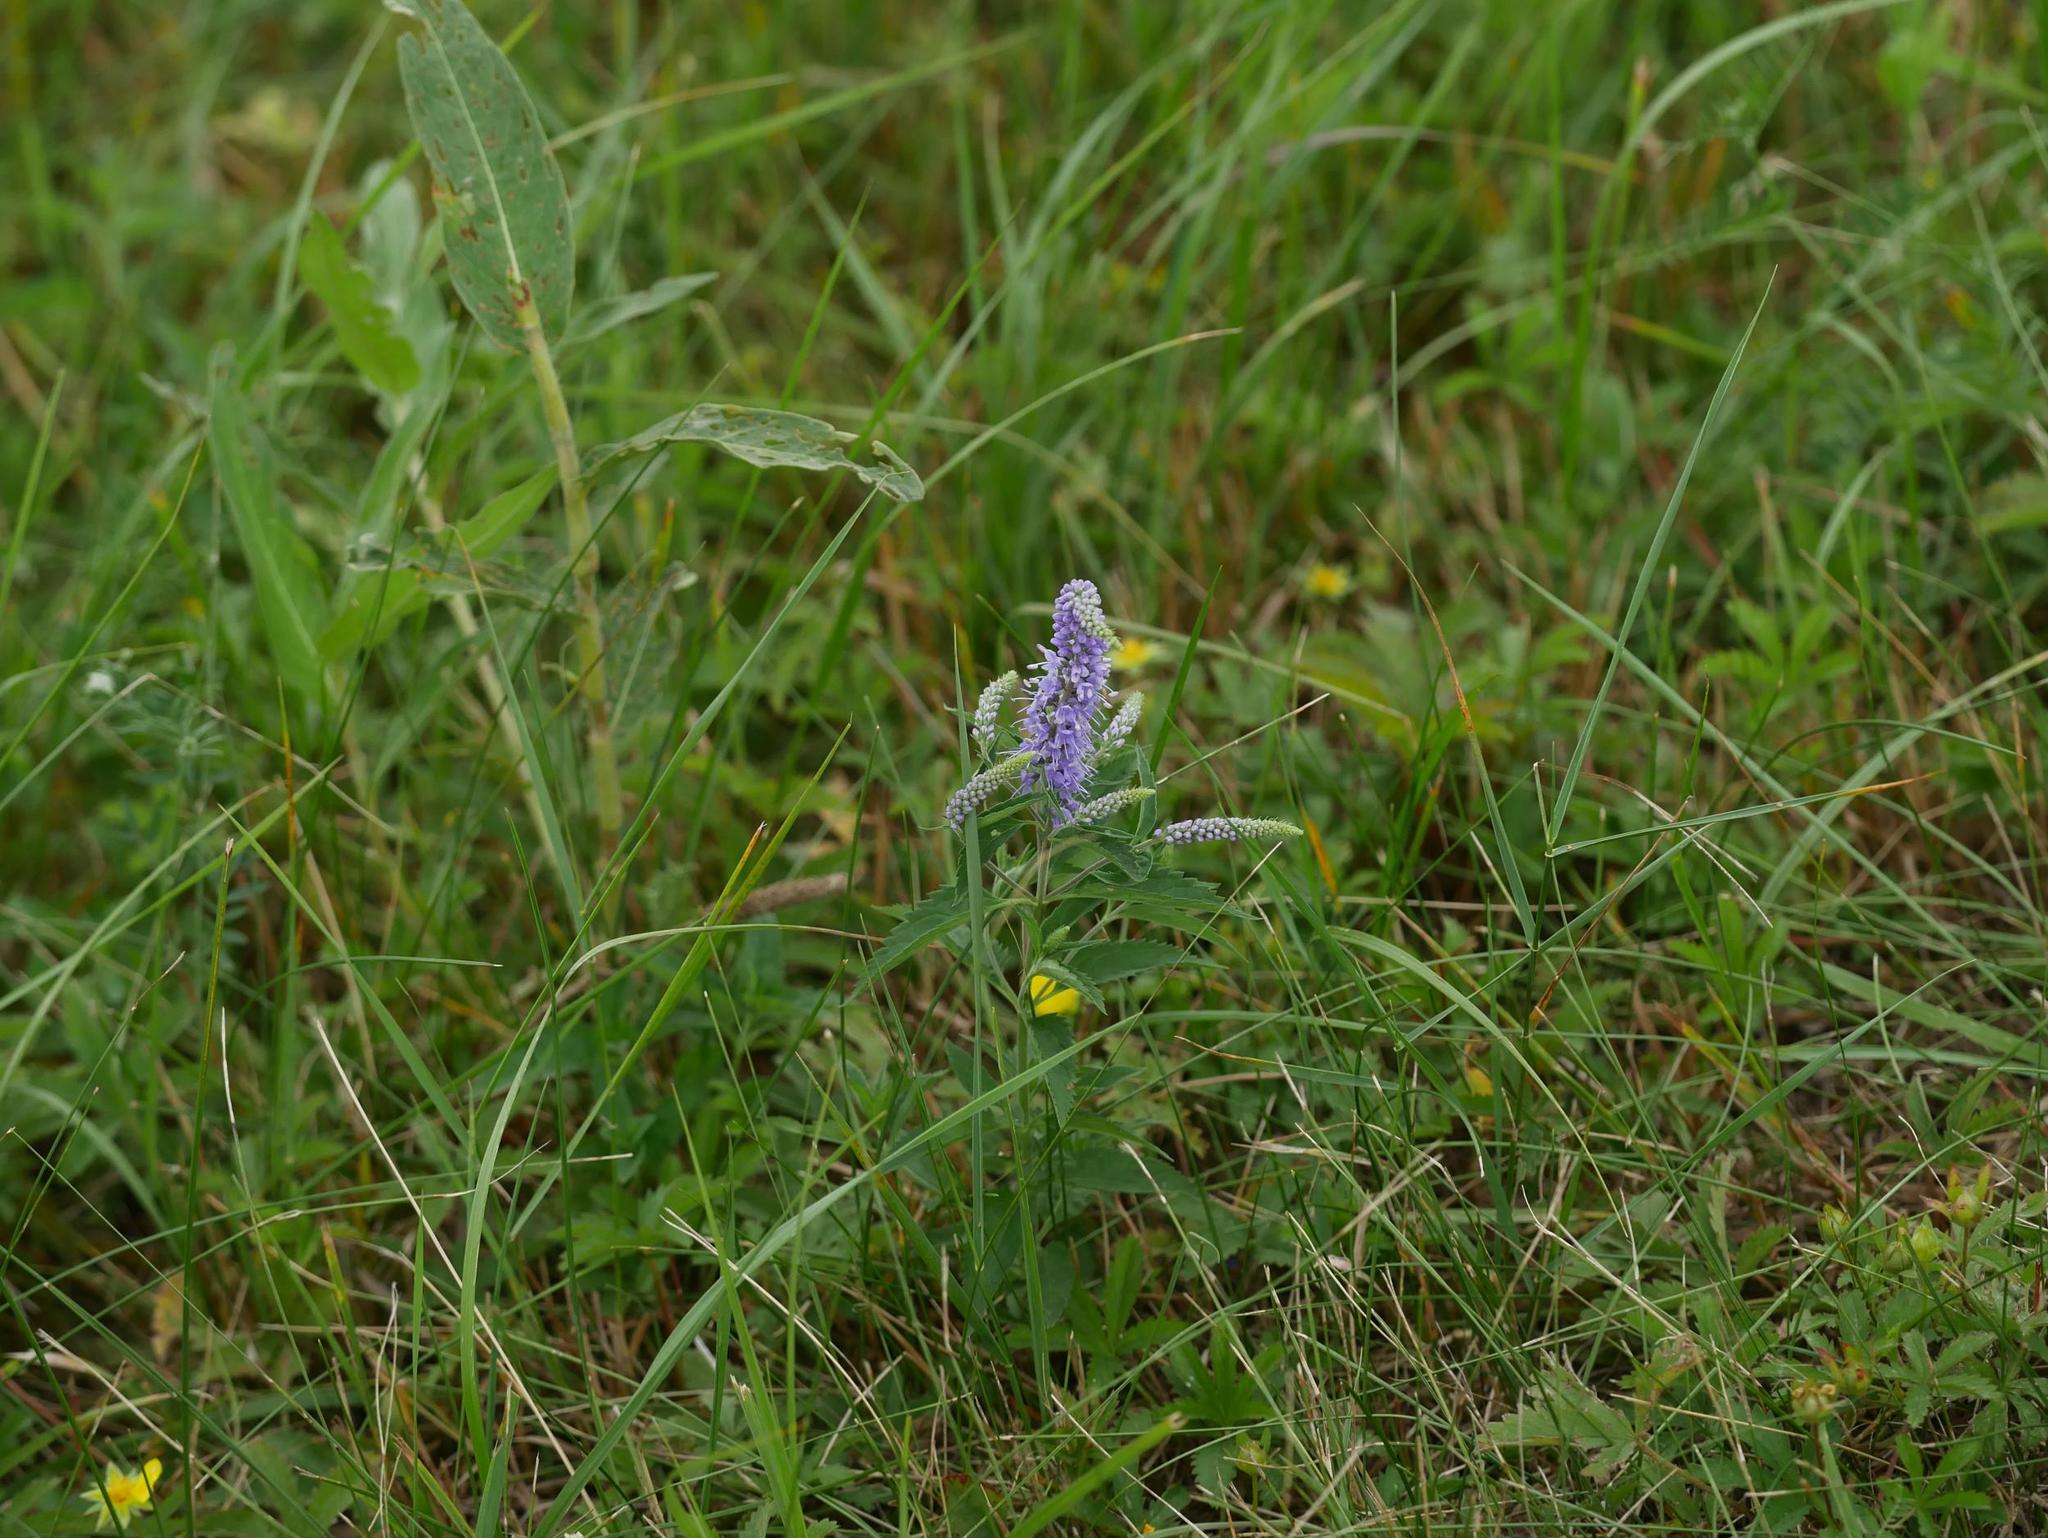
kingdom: Plantae
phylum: Tracheophyta
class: Magnoliopsida
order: Lamiales
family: Plantaginaceae
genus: Veronica
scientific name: Veronica longifolia
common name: Garden speedwell
